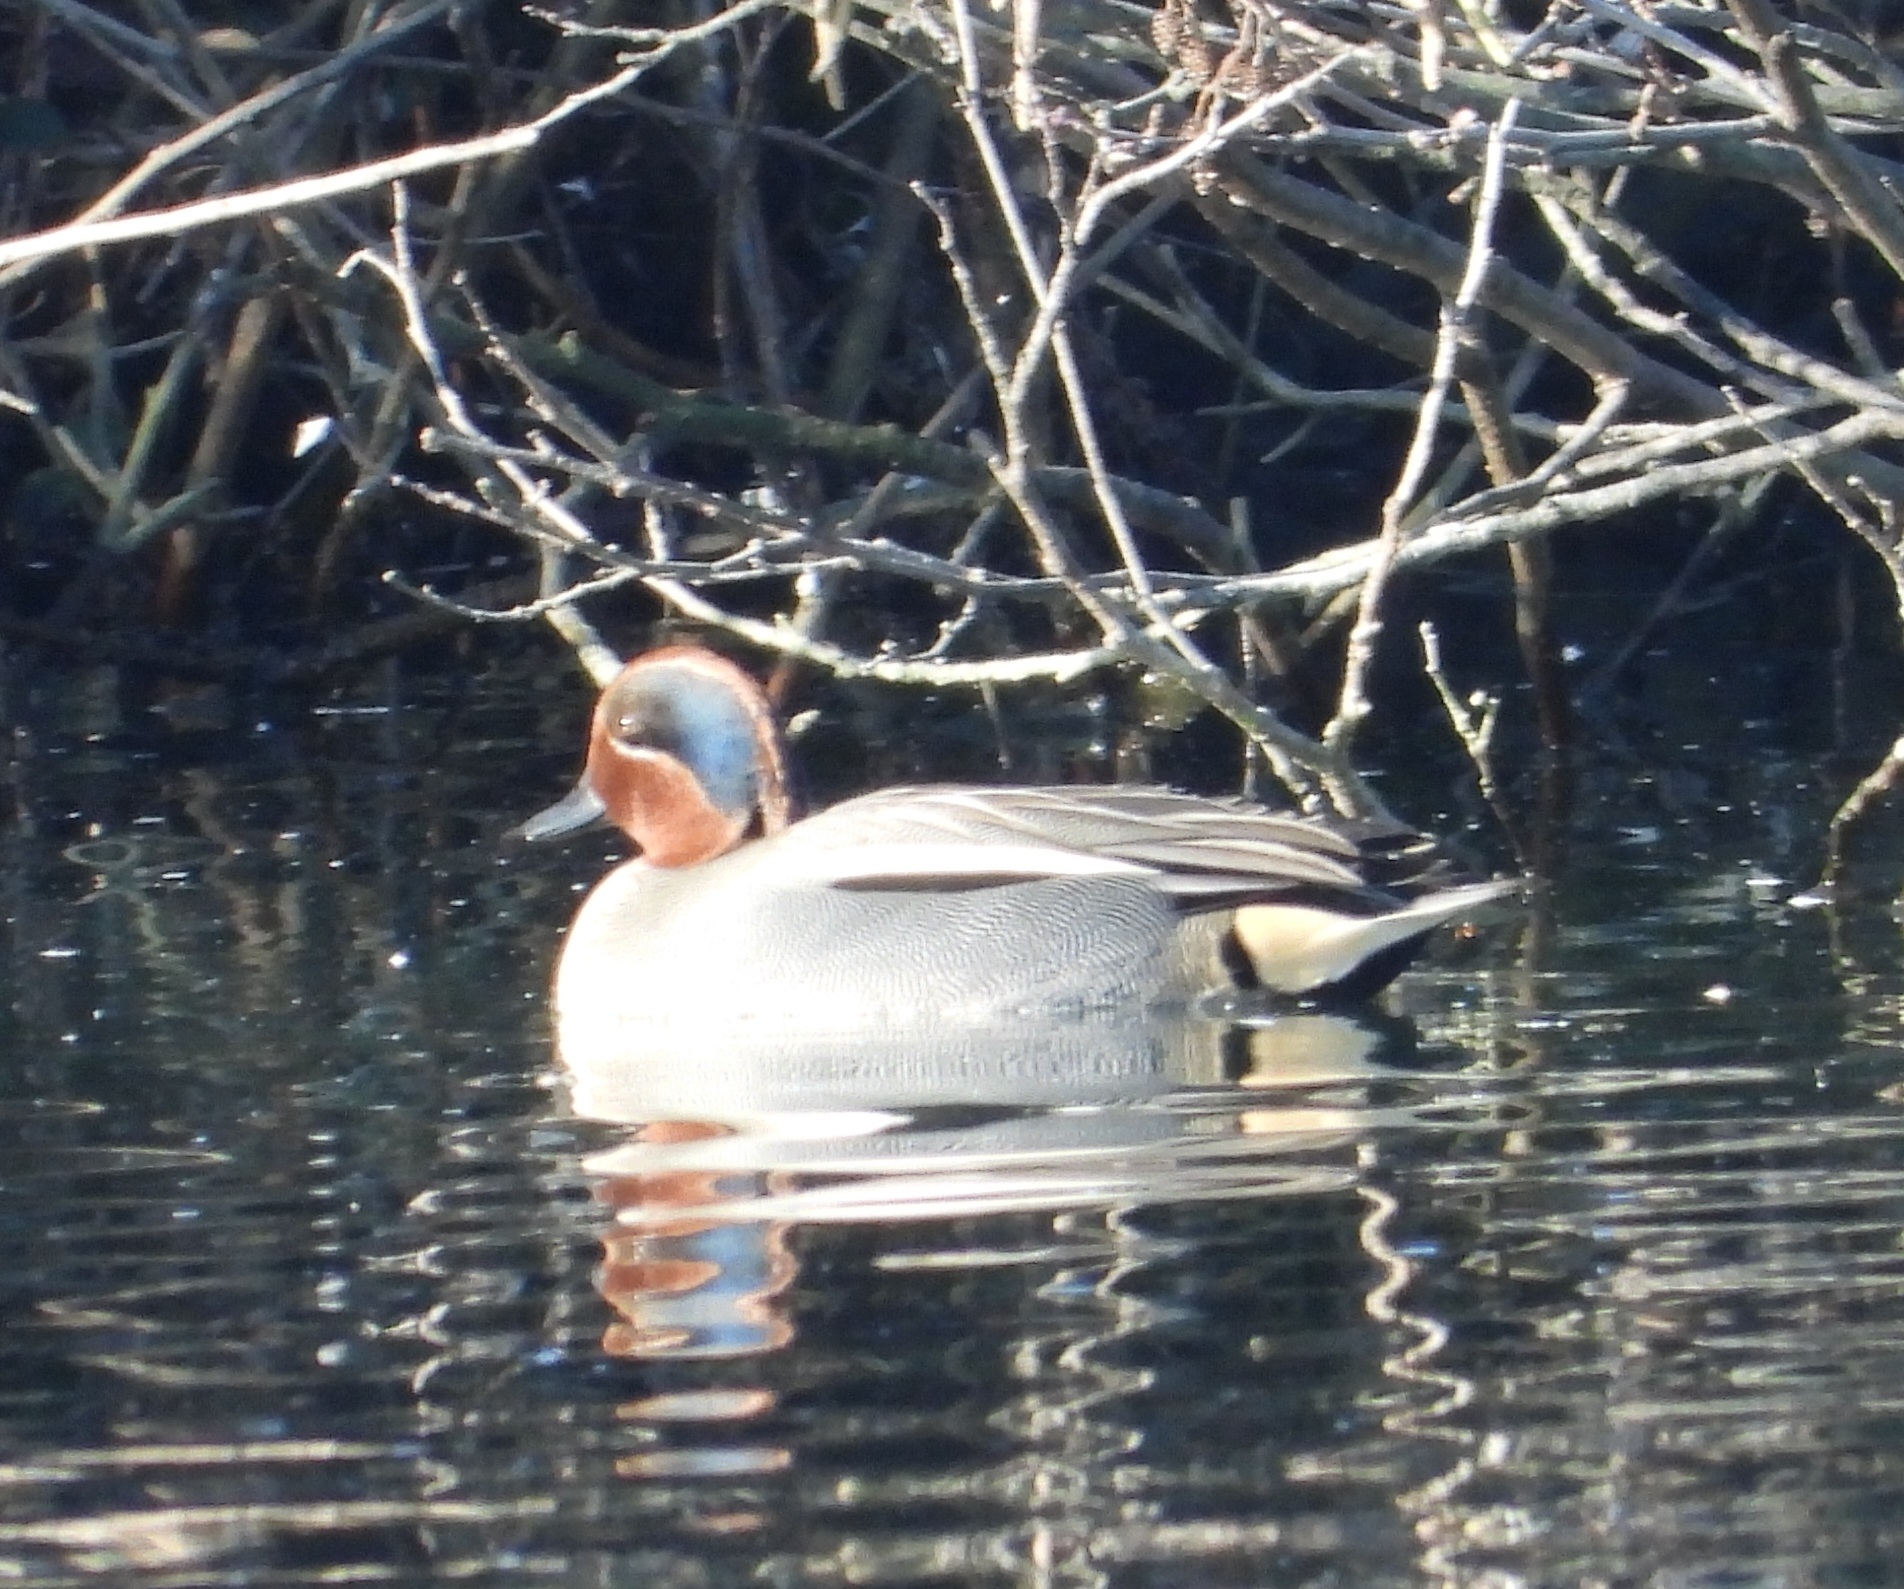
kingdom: Animalia
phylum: Chordata
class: Aves
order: Anseriformes
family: Anatidae
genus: Anas
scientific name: Anas crecca
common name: Eurasian teal
